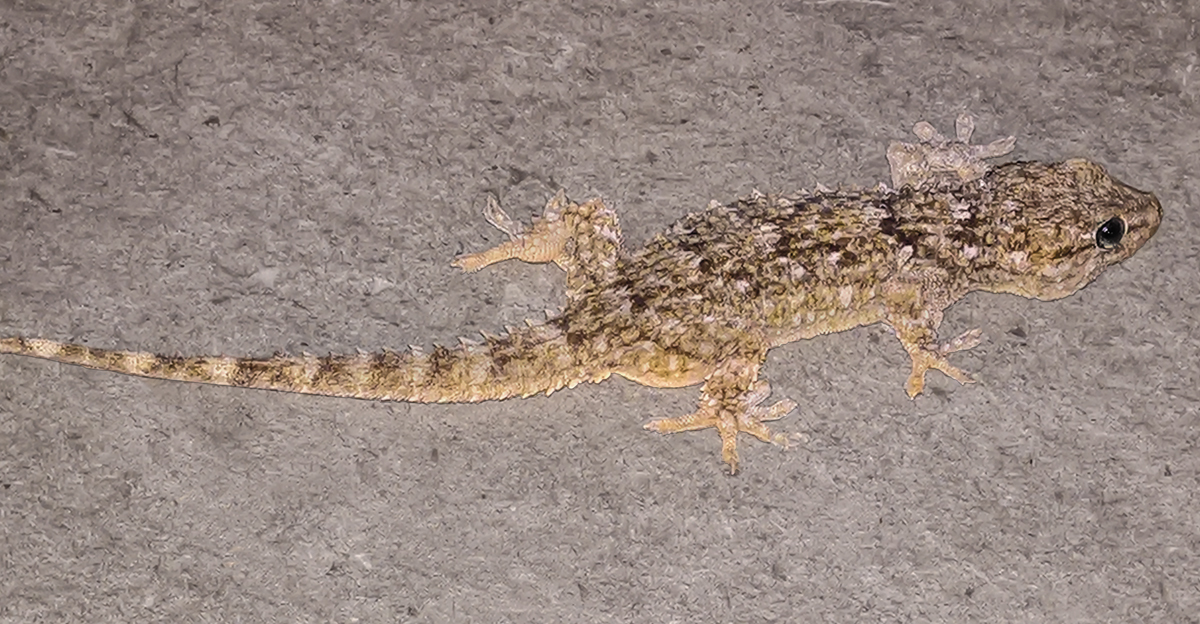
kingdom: Animalia
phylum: Chordata
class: Squamata
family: Phyllodactylidae
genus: Tarentola
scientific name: Tarentola mauritanica
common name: Moorish gecko
